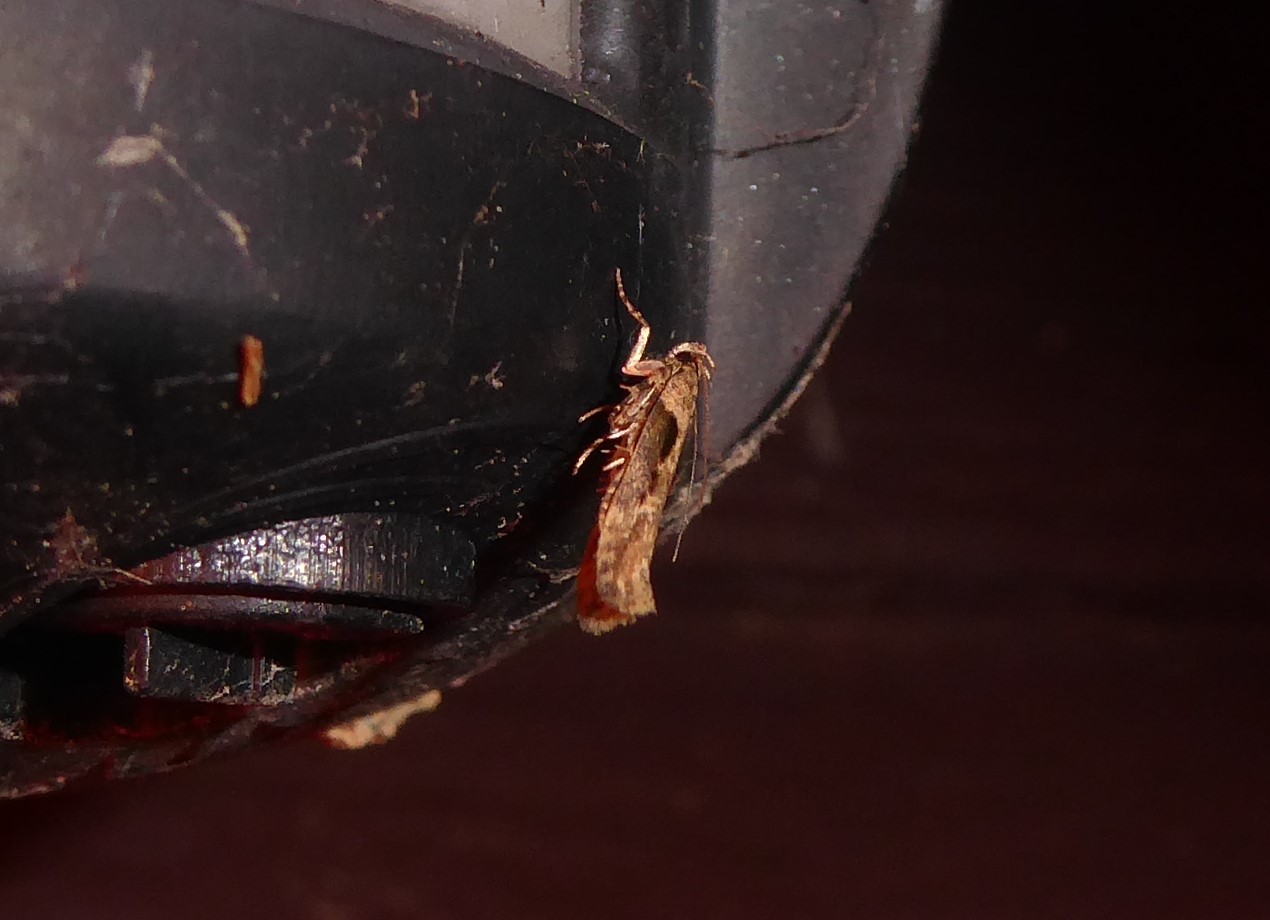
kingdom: Animalia
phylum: Arthropoda
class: Insecta
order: Lepidoptera
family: Gelechiidae
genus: Symmetrischema
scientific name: Symmetrischema tangolias
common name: Moth
